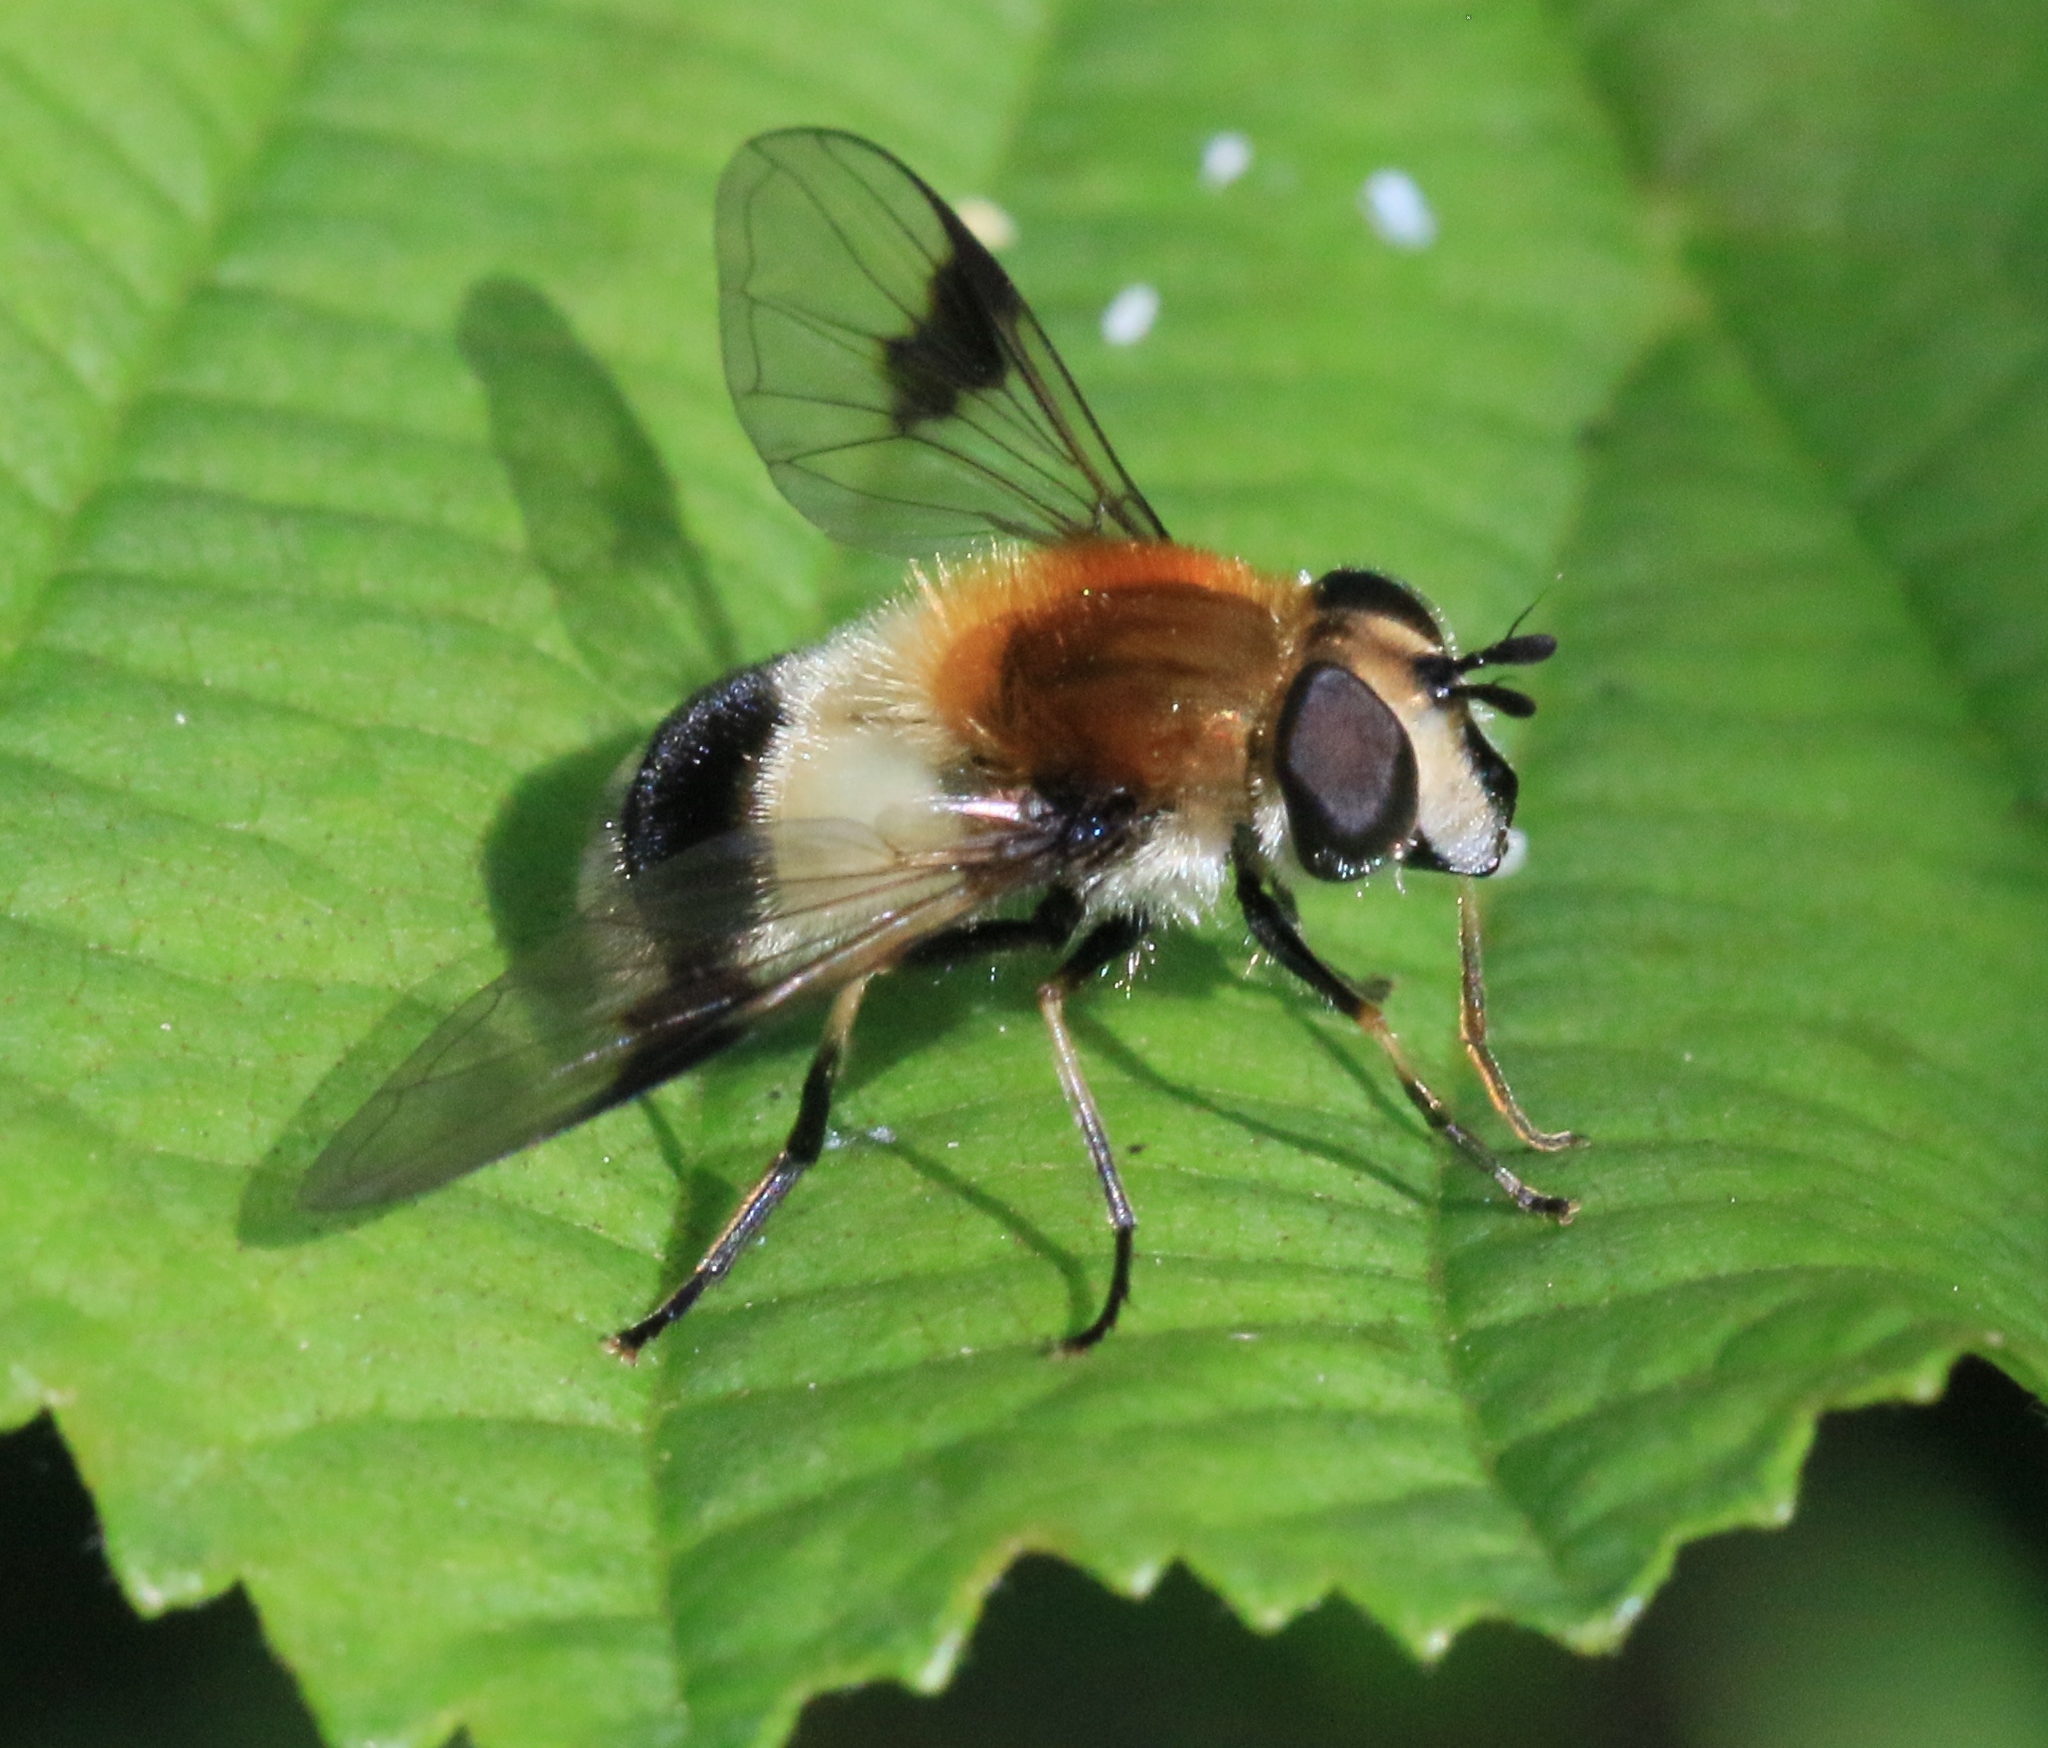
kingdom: Animalia
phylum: Arthropoda
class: Insecta
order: Diptera
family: Syrphidae
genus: Leucozona
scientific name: Leucozona lucorum
